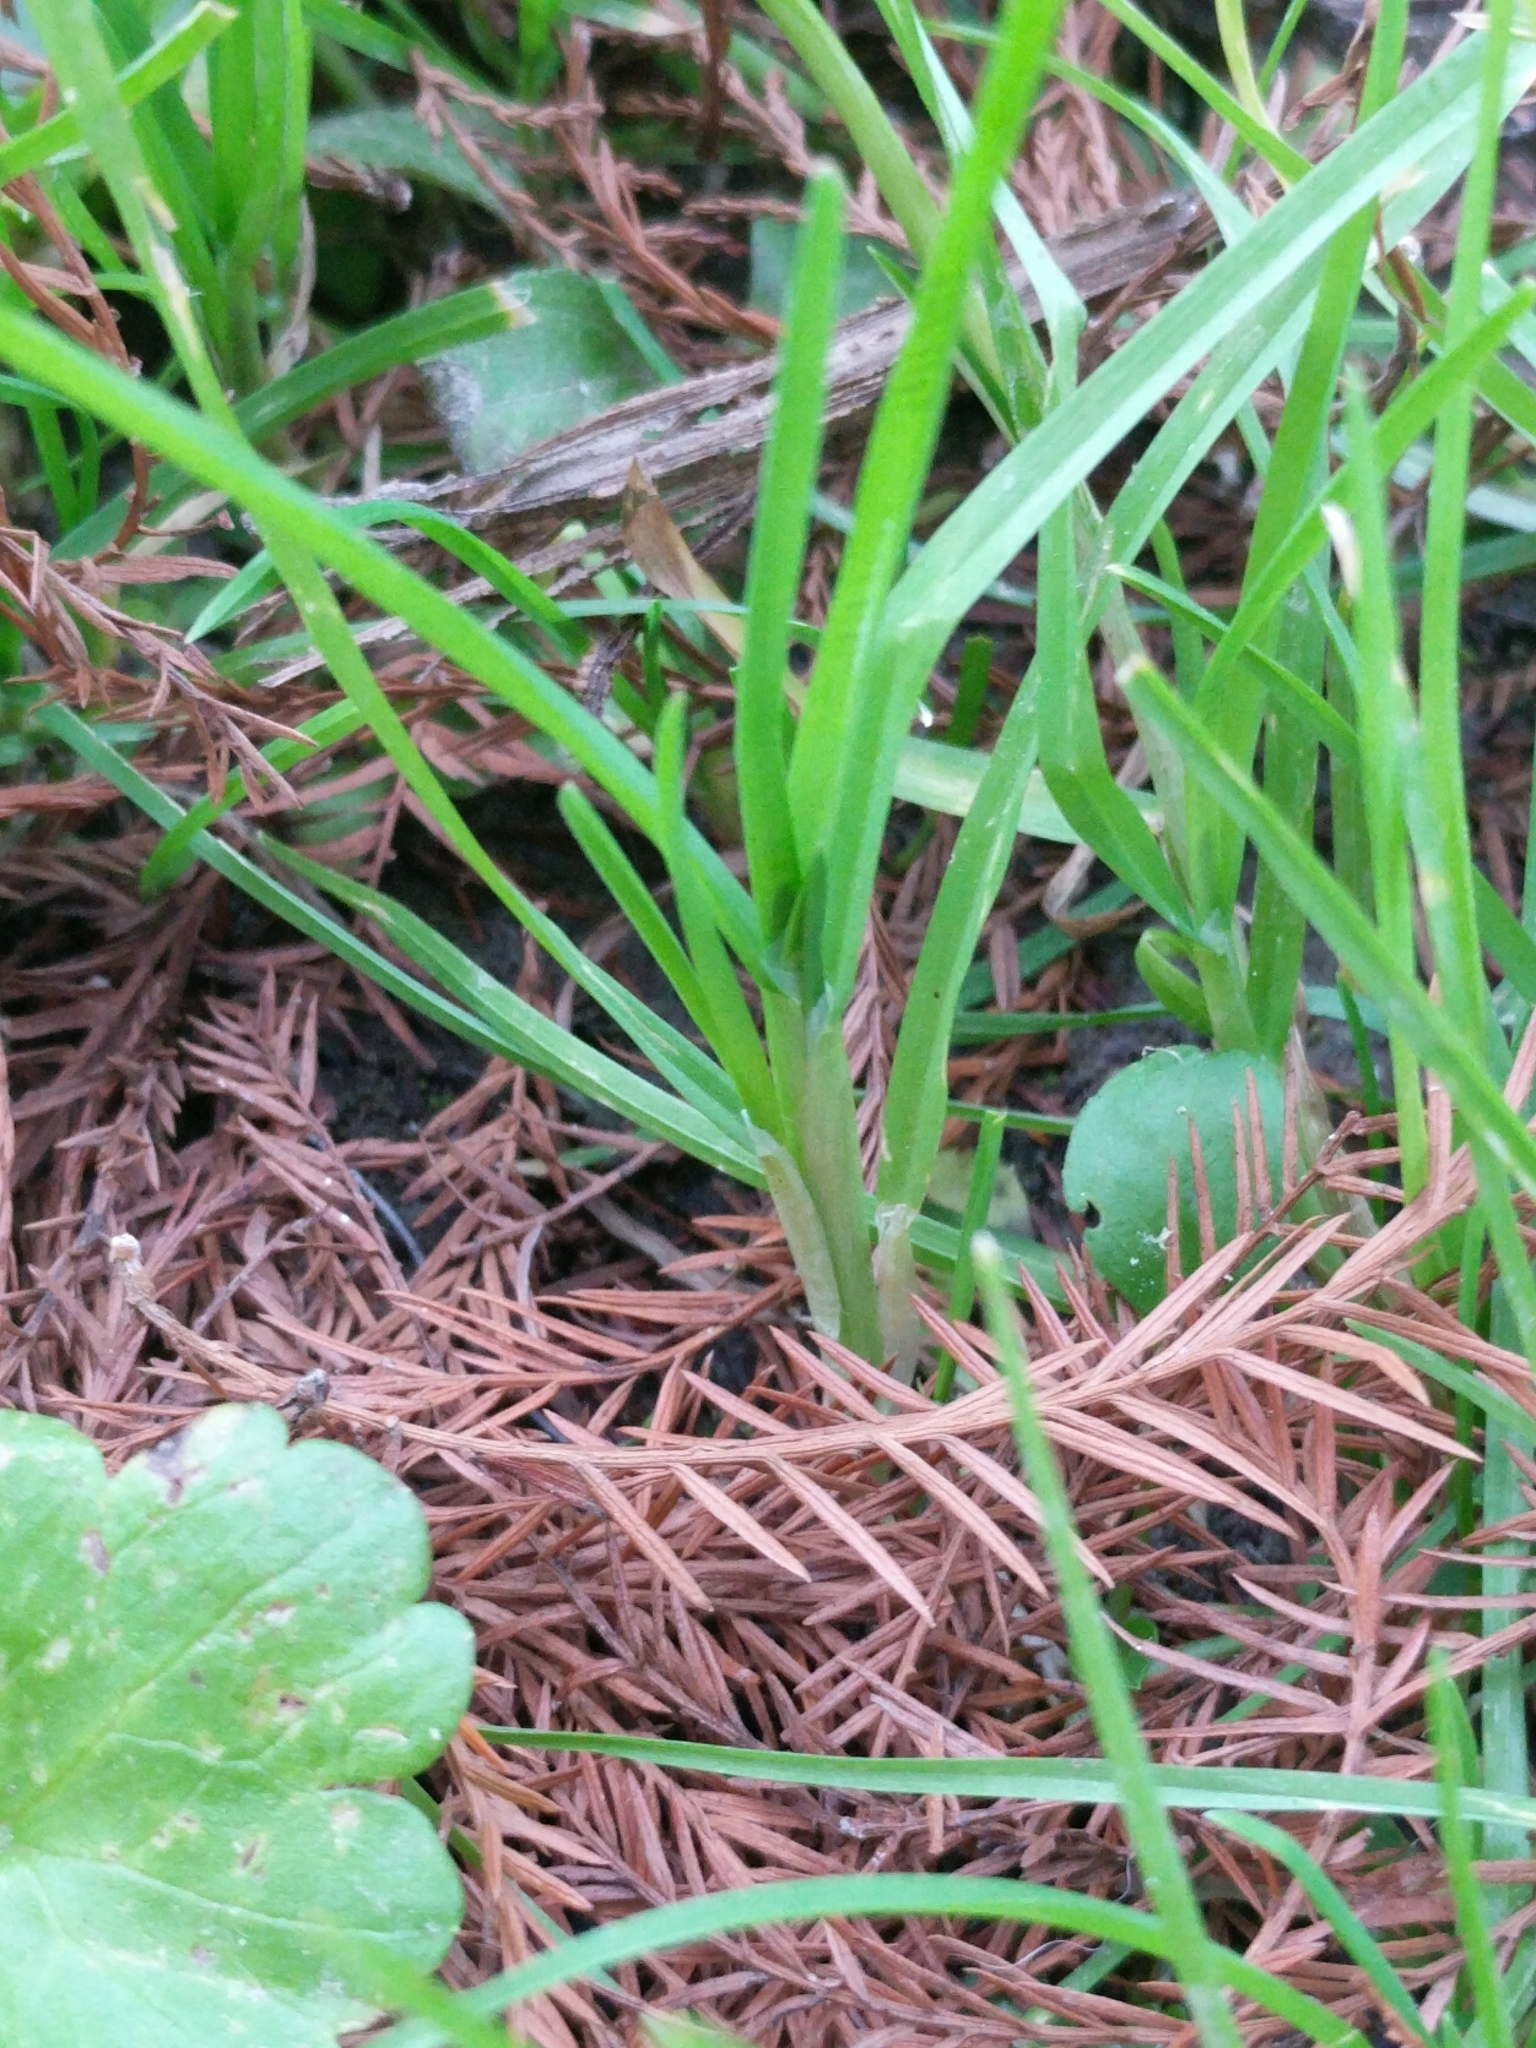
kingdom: Plantae
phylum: Tracheophyta
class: Liliopsida
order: Poales
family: Poaceae
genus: Poa
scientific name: Poa annua
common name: Annual bluegrass
